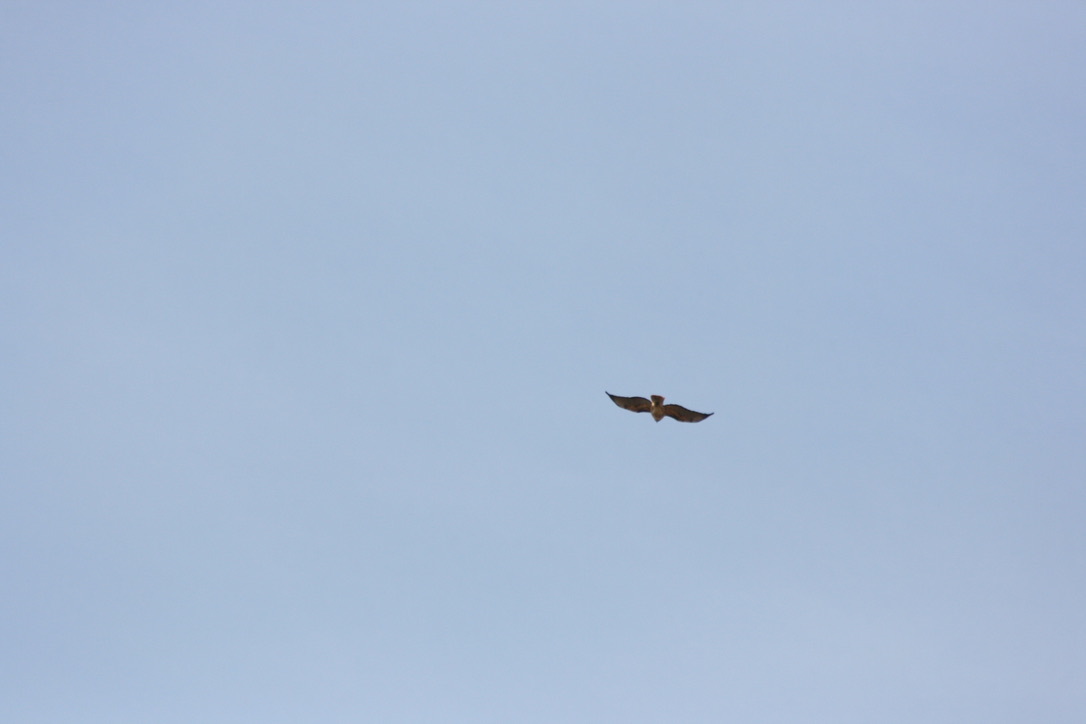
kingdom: Animalia
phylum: Chordata
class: Aves
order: Accipitriformes
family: Accipitridae
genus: Buteo
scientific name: Buteo jamaicensis
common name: Red-tailed hawk
